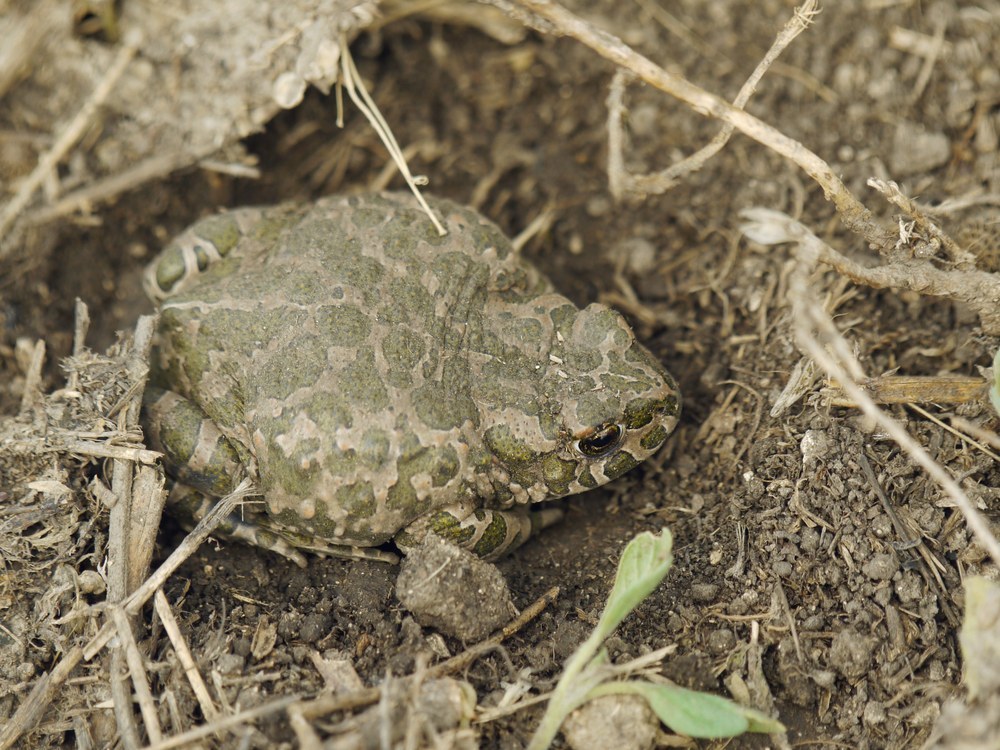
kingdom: Animalia
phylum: Chordata
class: Amphibia
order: Anura
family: Bufonidae
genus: Bufotes
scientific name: Bufotes viridis
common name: European green toad
